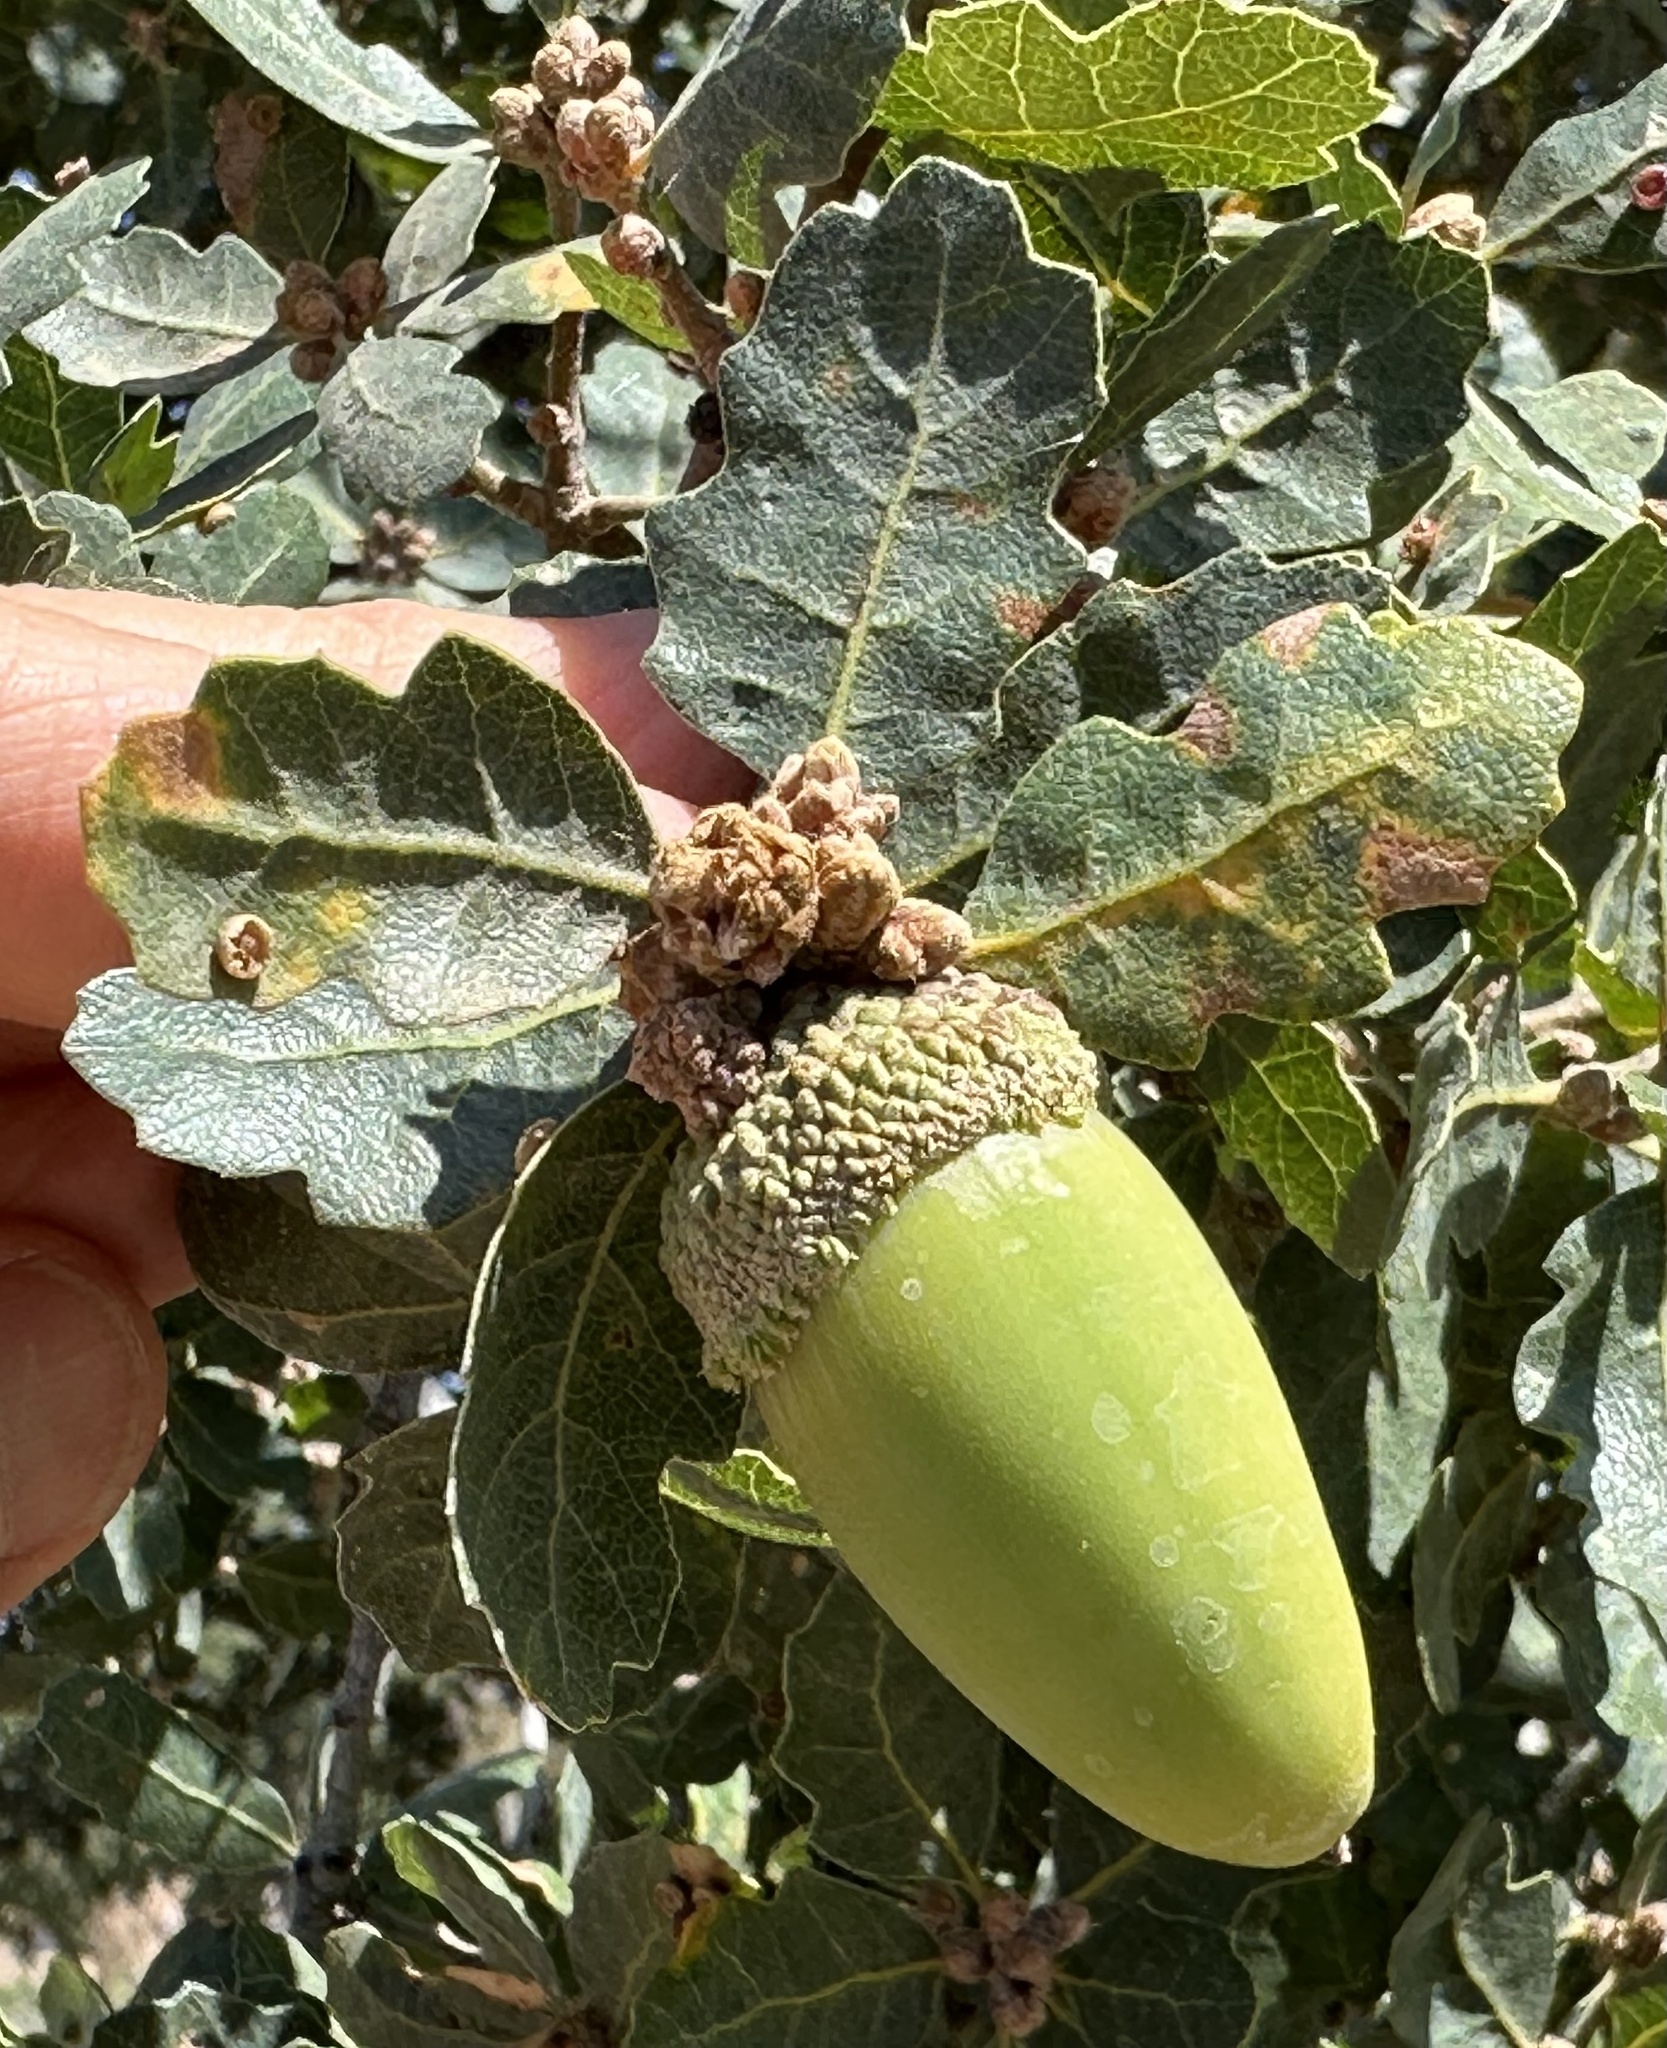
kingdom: Plantae
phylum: Tracheophyta
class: Magnoliopsida
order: Fagales
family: Fagaceae
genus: Quercus
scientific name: Quercus douglasii
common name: Blue oak
